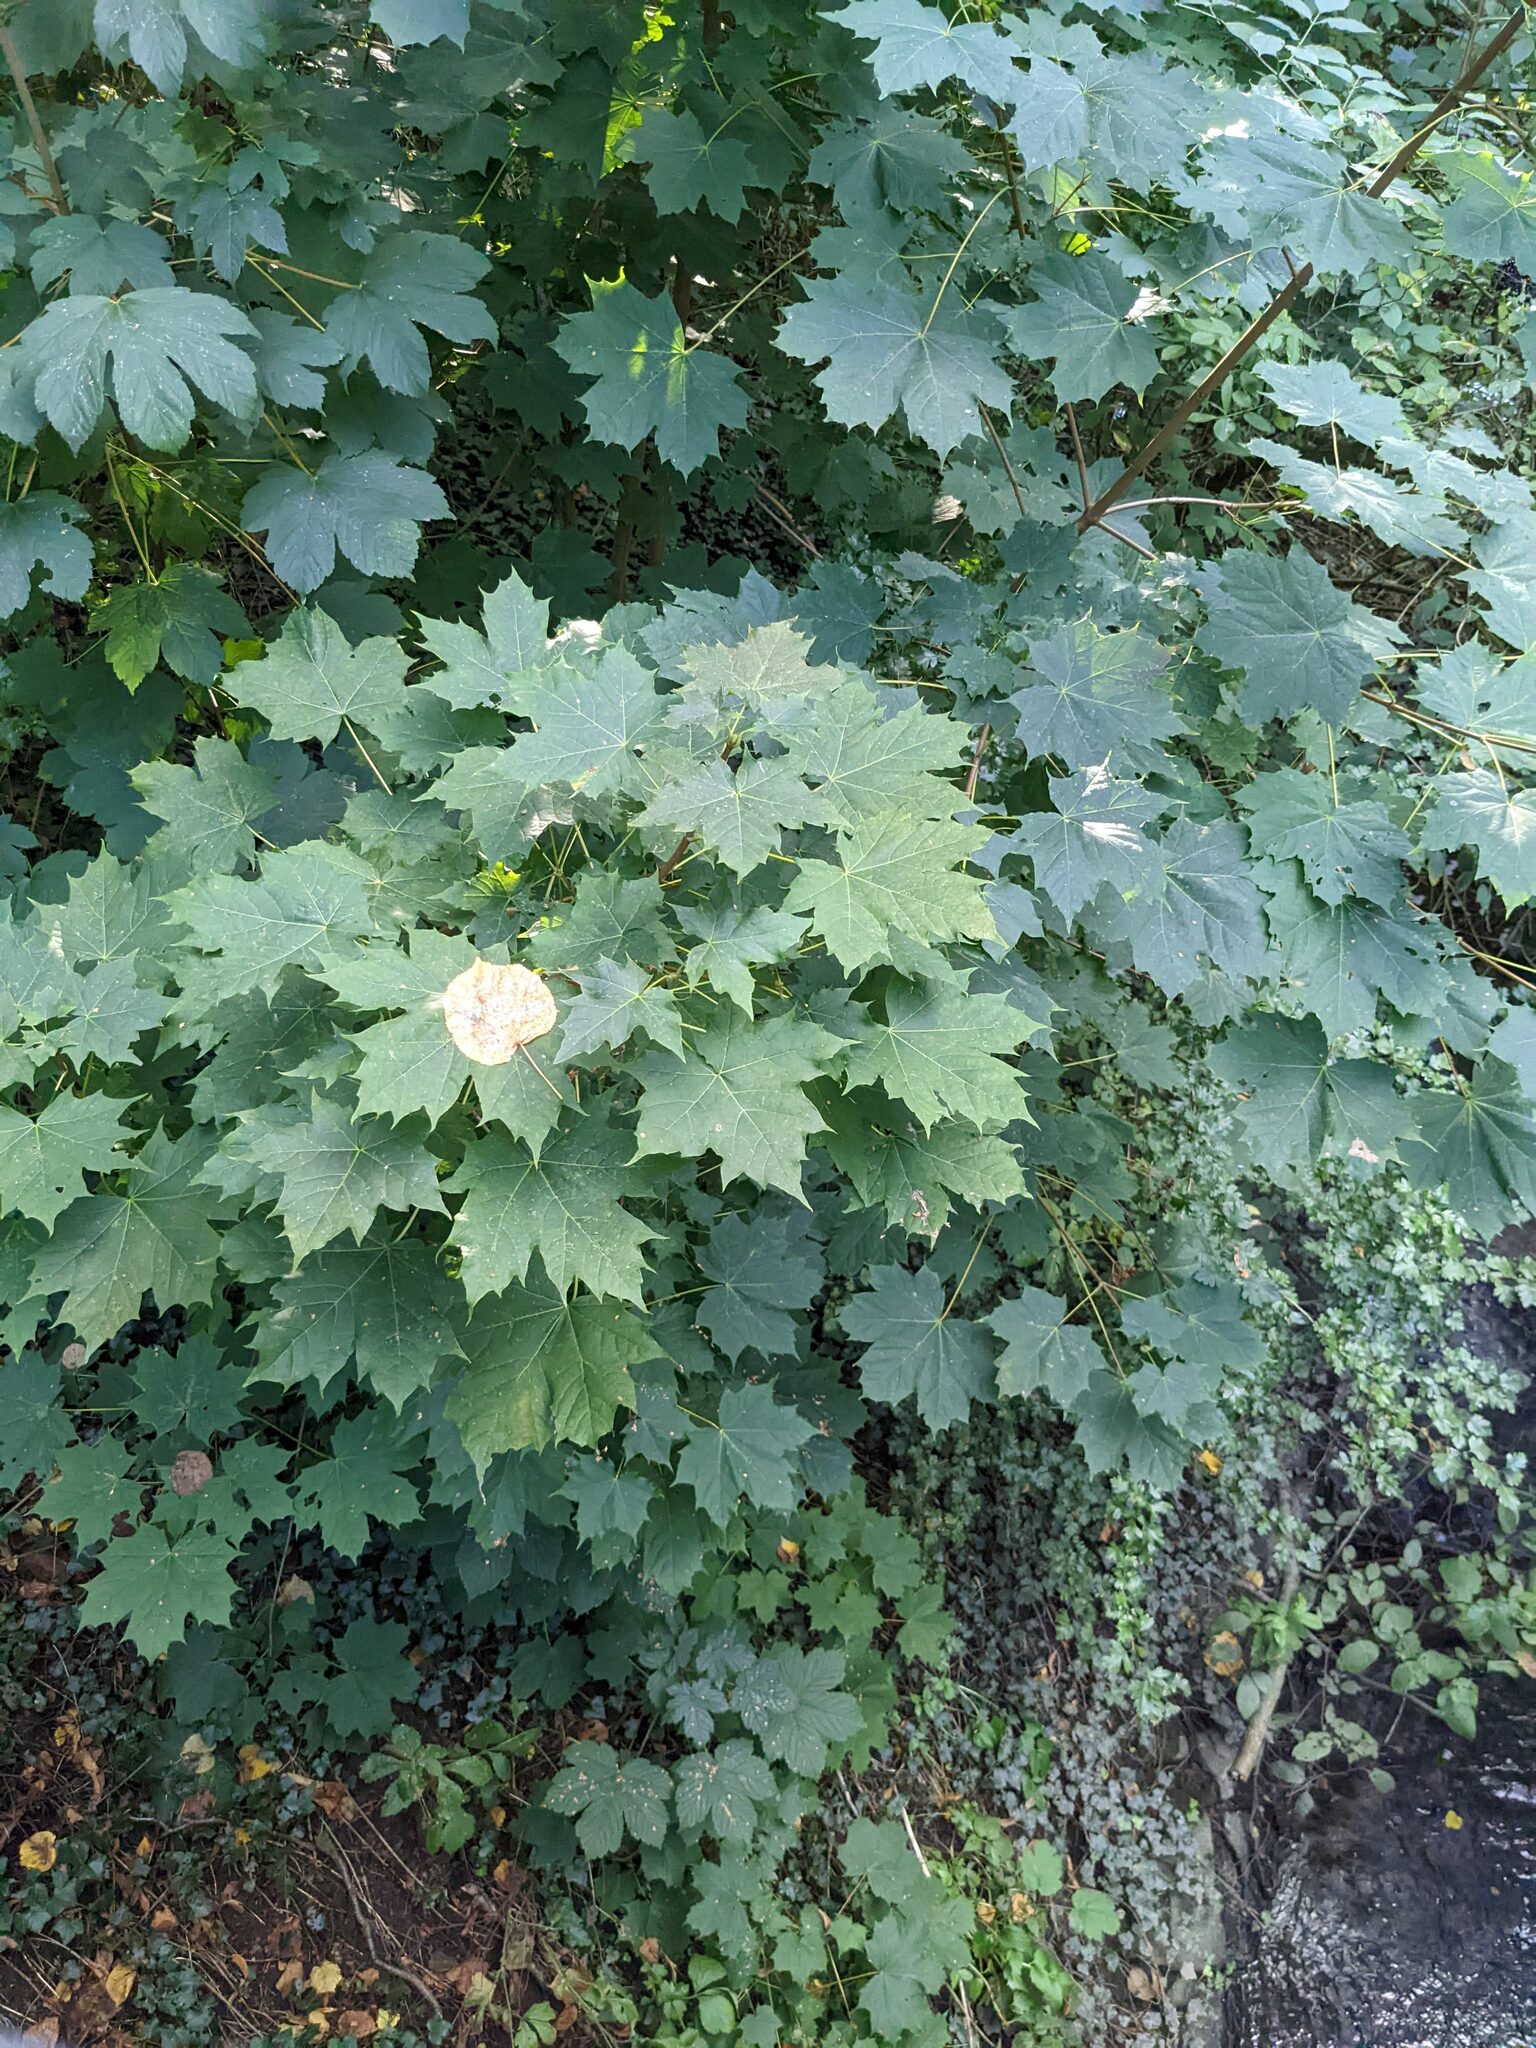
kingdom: Plantae
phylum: Tracheophyta
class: Magnoliopsida
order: Sapindales
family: Sapindaceae
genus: Acer
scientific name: Acer platanoides
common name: Norway maple
